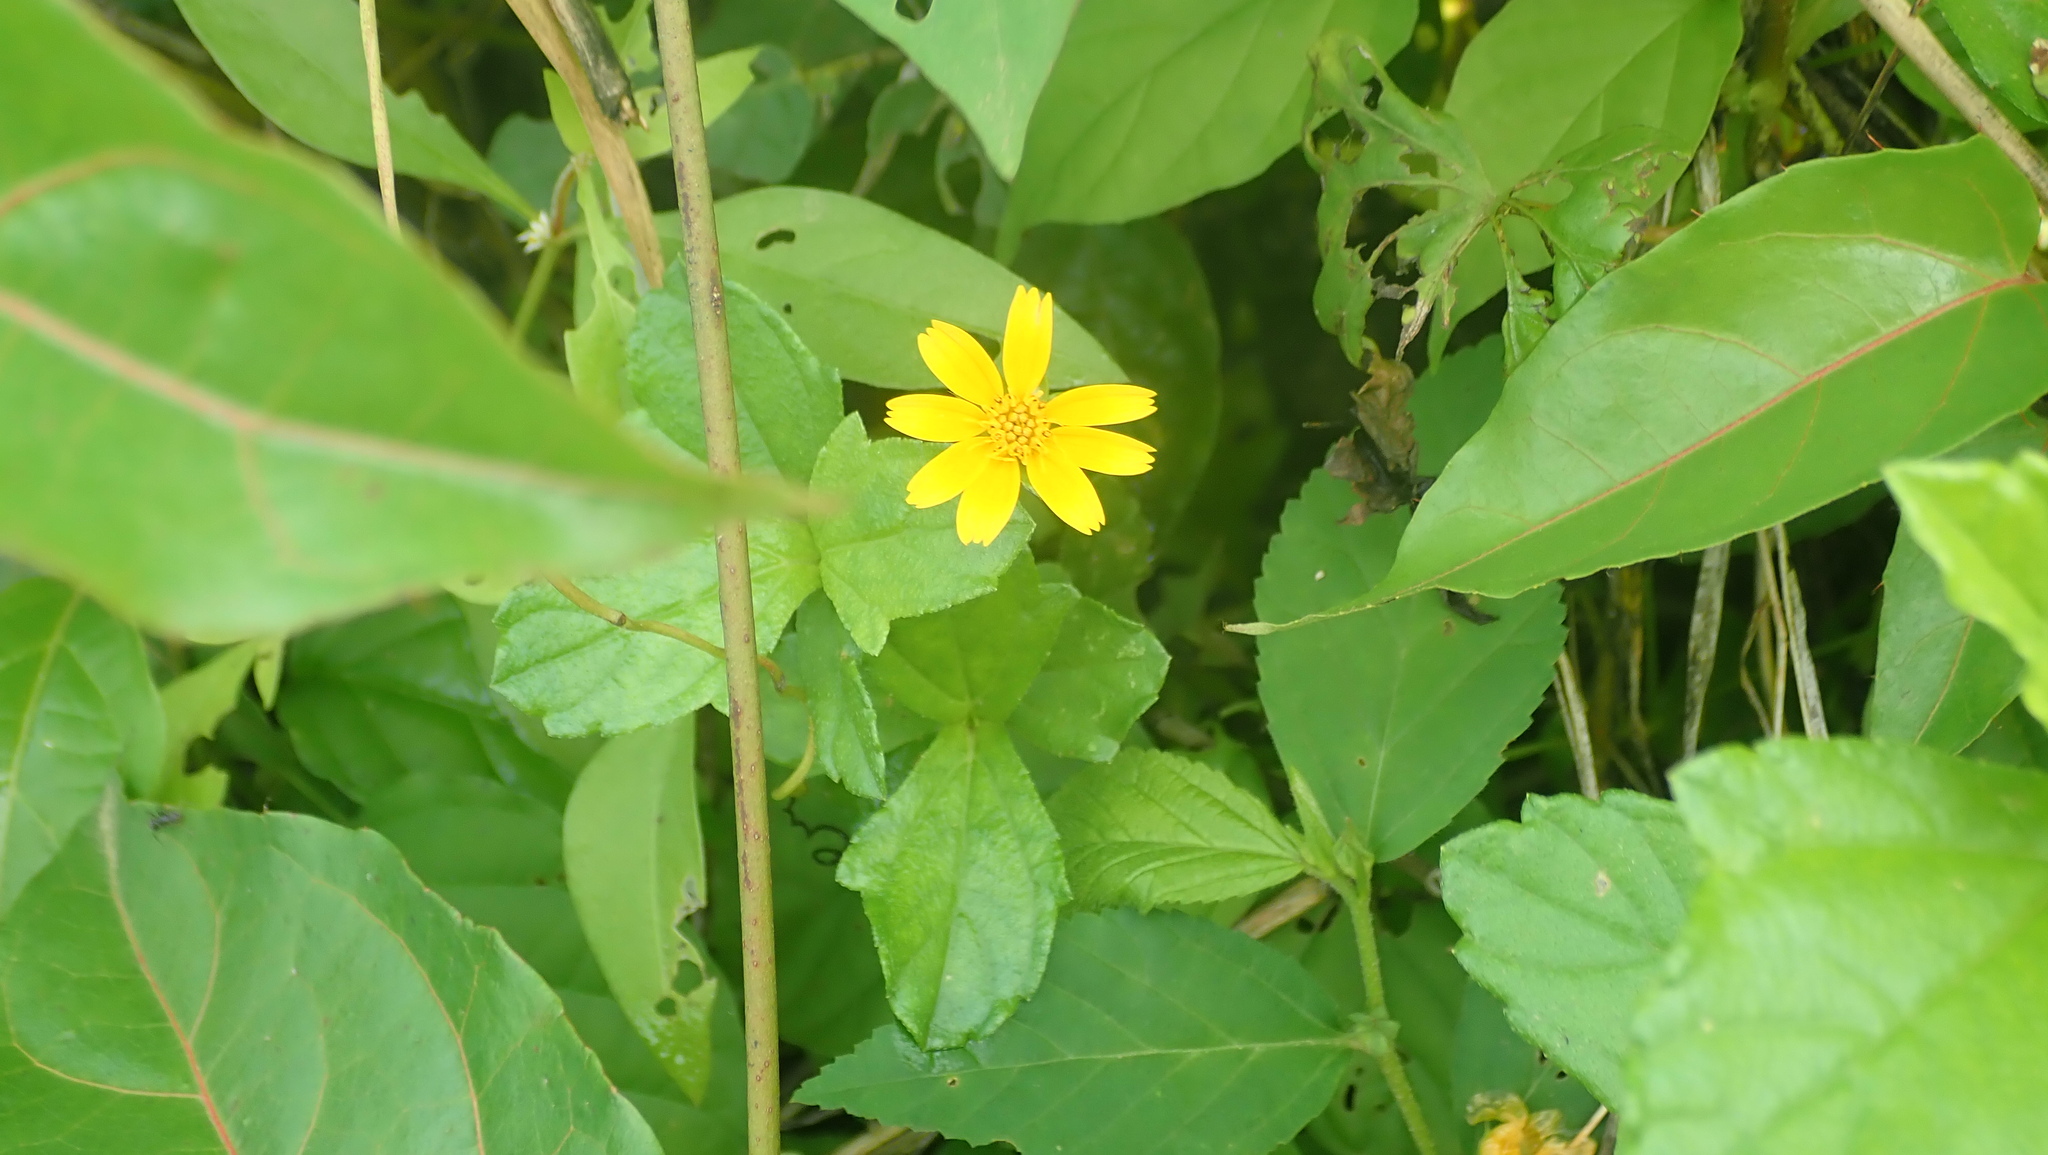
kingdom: Plantae
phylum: Tracheophyta
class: Magnoliopsida
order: Asterales
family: Asteraceae
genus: Sphagneticola
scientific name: Sphagneticola trilobata
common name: Bay biscayne creeping-oxeye
